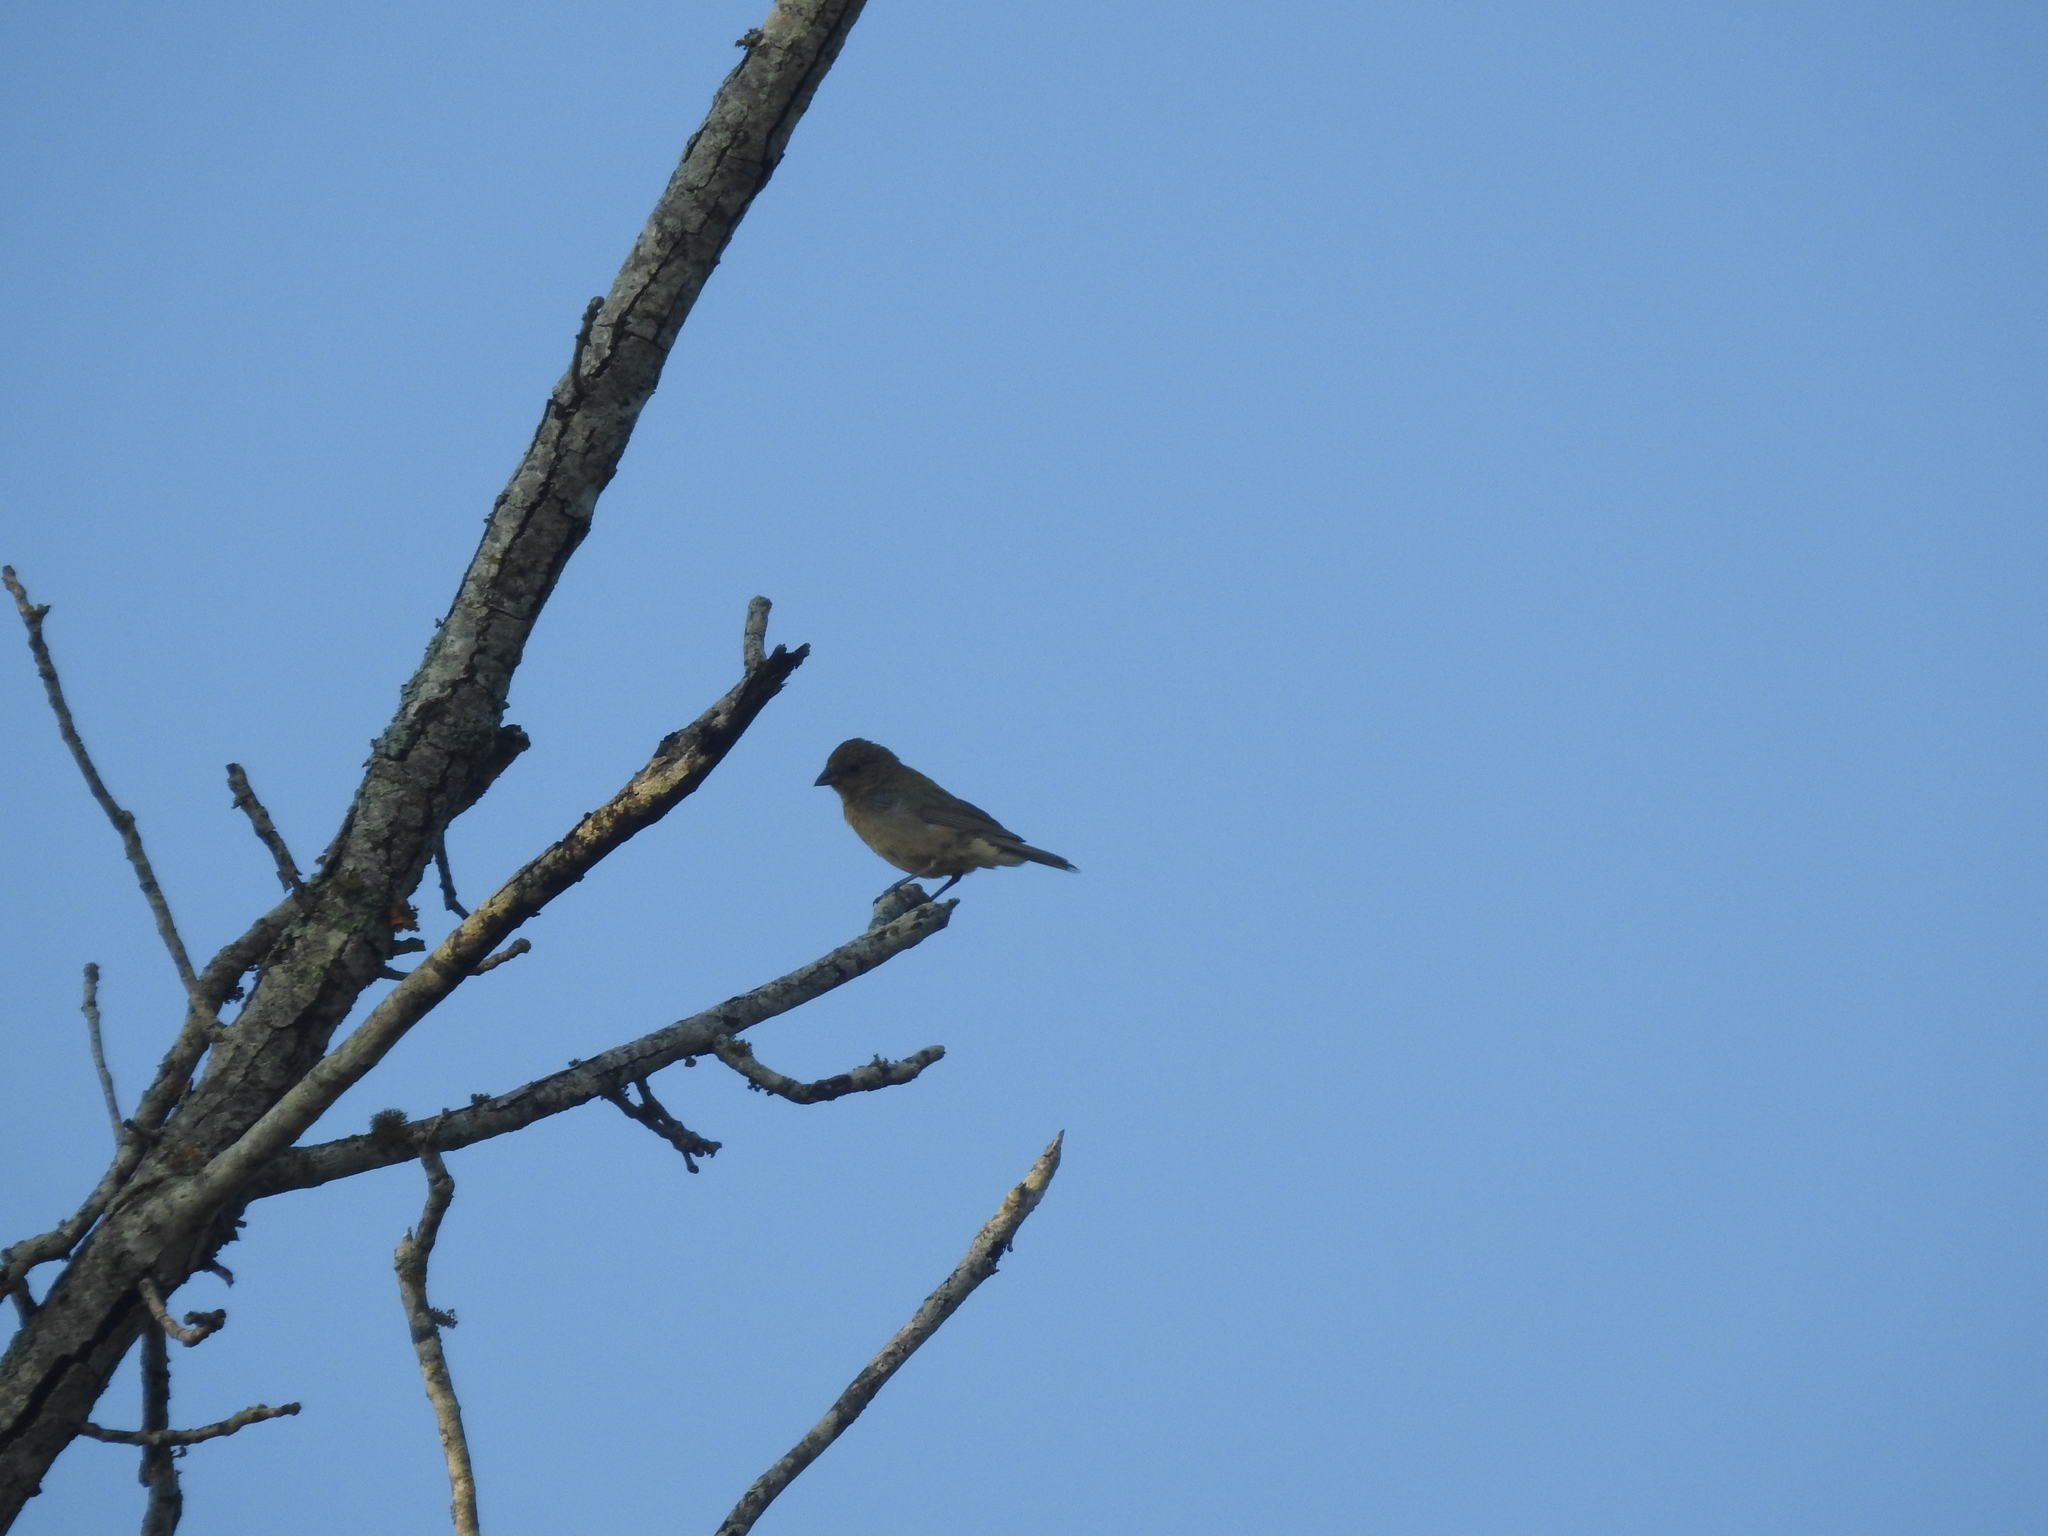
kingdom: Animalia
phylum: Chordata
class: Aves
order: Passeriformes
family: Cardinalidae
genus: Passerina
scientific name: Passerina cyanea
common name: Indigo bunting
